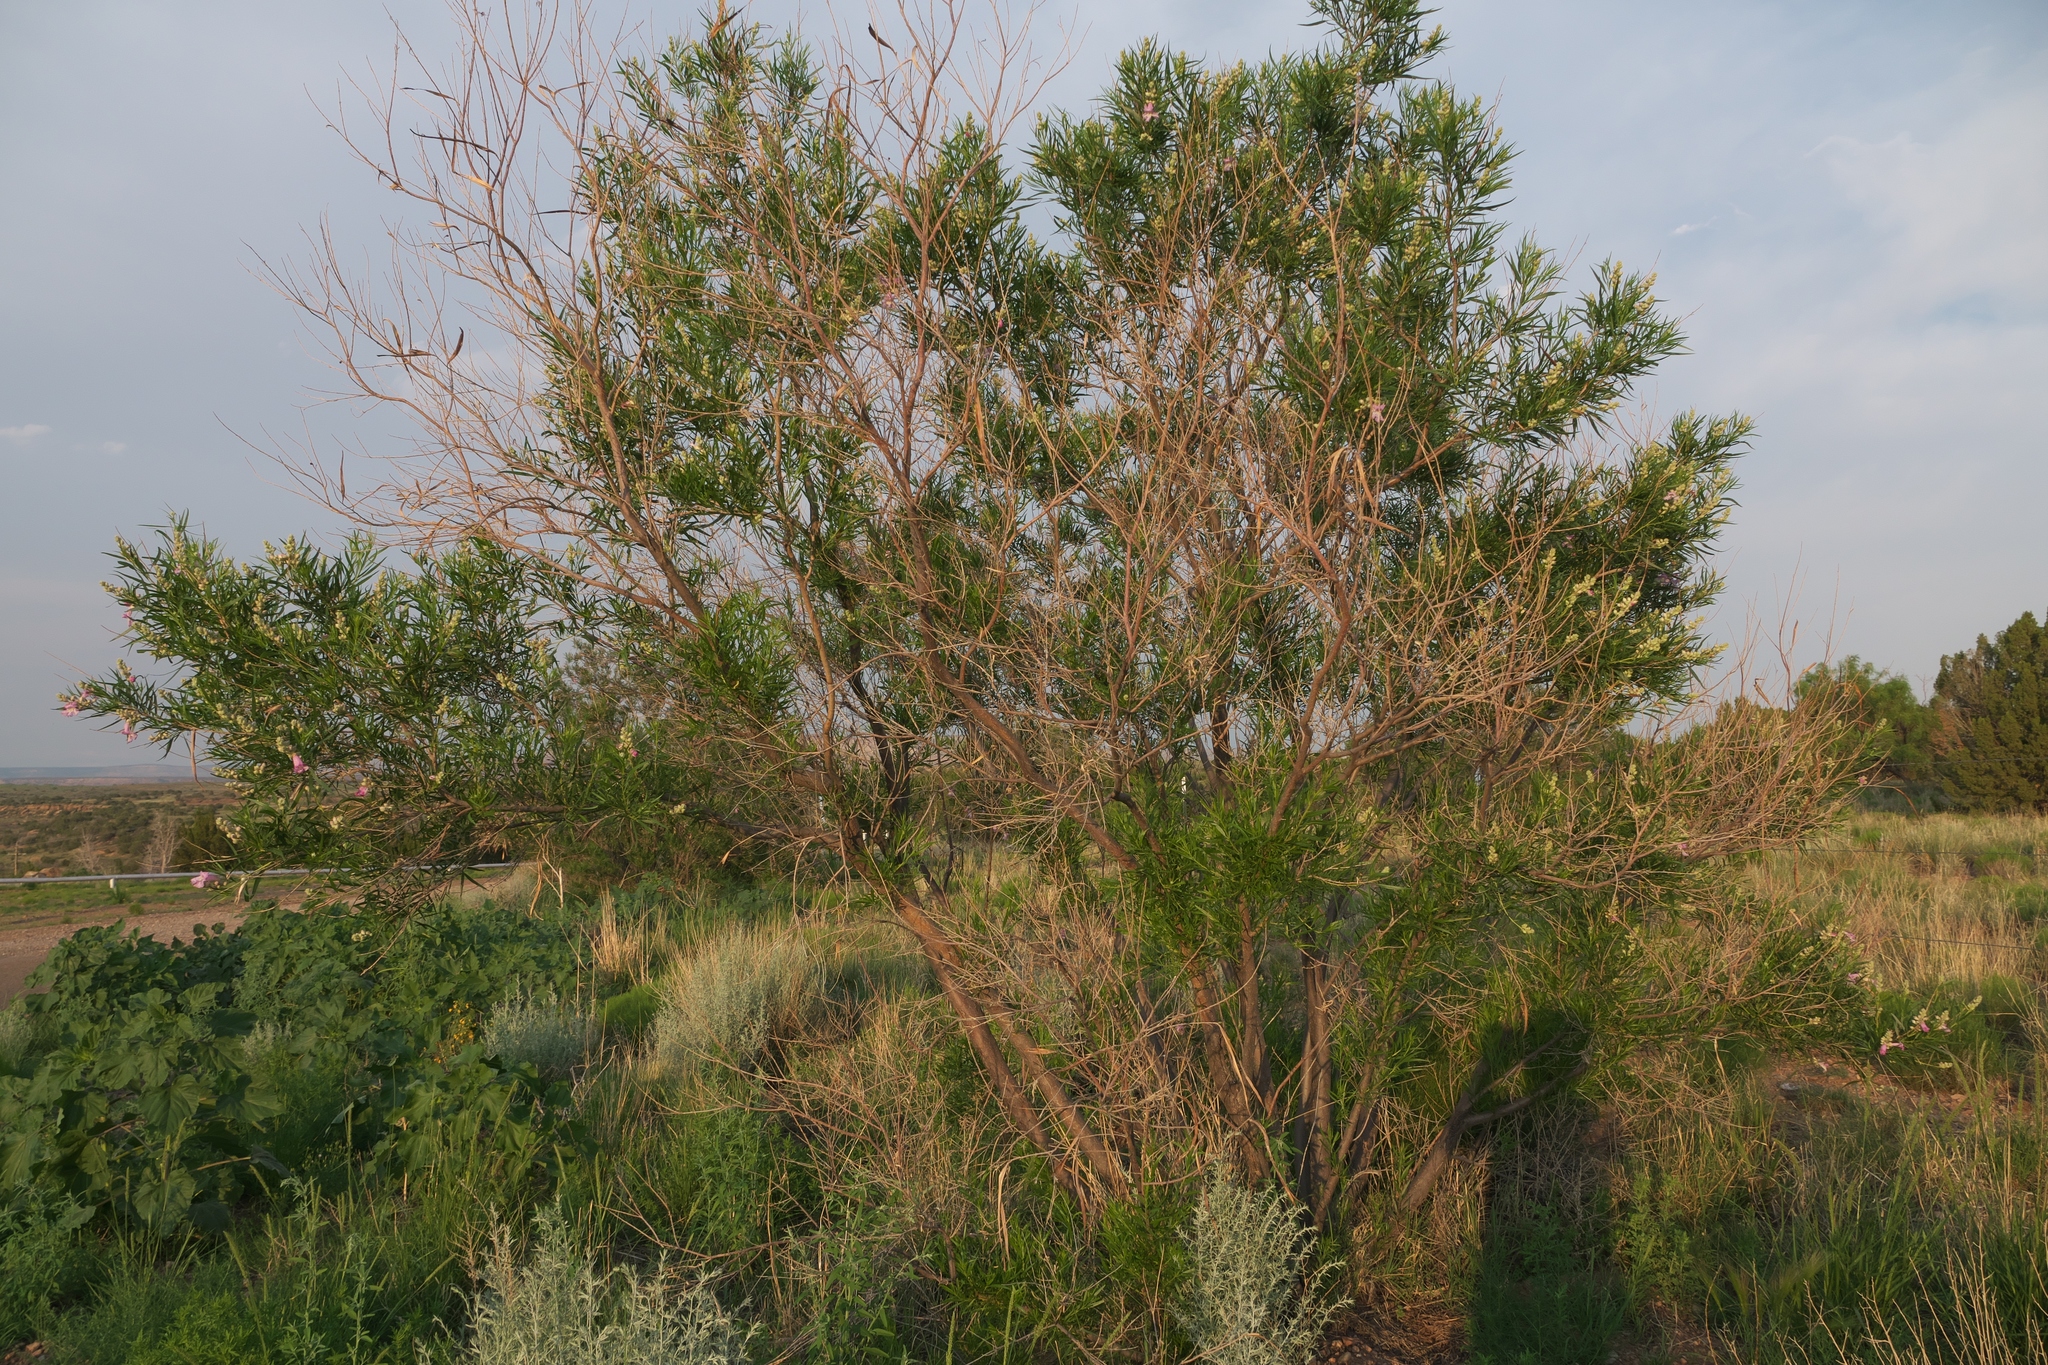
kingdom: Plantae
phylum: Tracheophyta
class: Magnoliopsida
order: Lamiales
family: Bignoniaceae
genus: Chilopsis
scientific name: Chilopsis linearis
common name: Desert-willow
